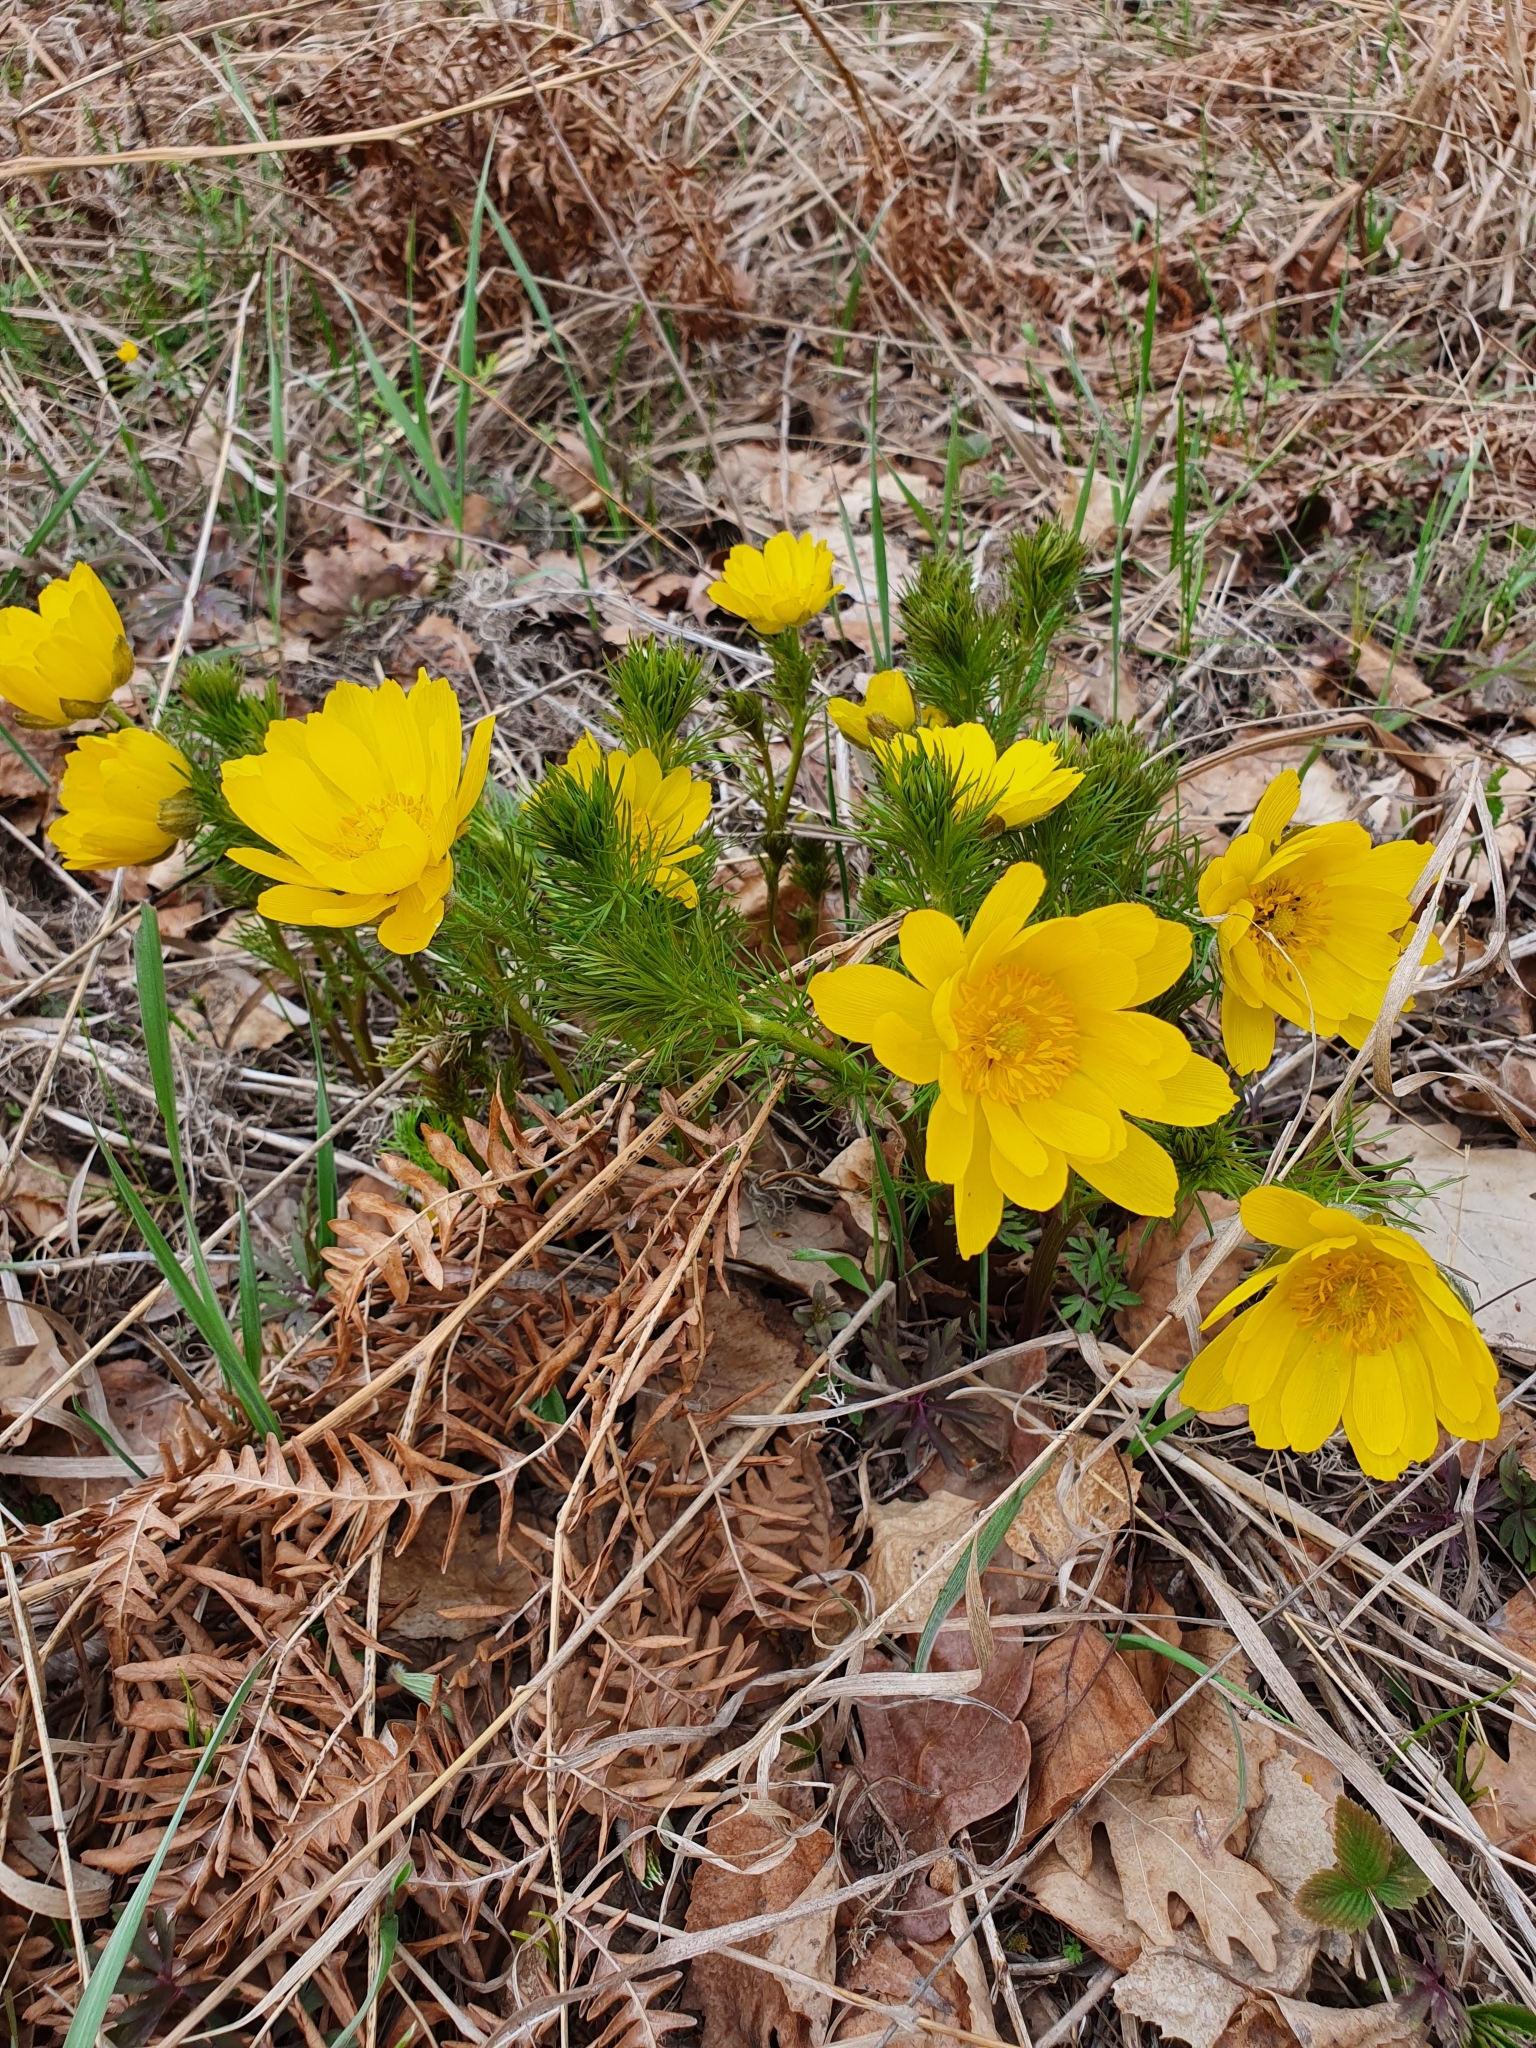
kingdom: Plantae
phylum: Tracheophyta
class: Magnoliopsida
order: Ranunculales
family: Ranunculaceae
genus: Adonis
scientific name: Adonis vernalis
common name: Yellow pheasants-eye
